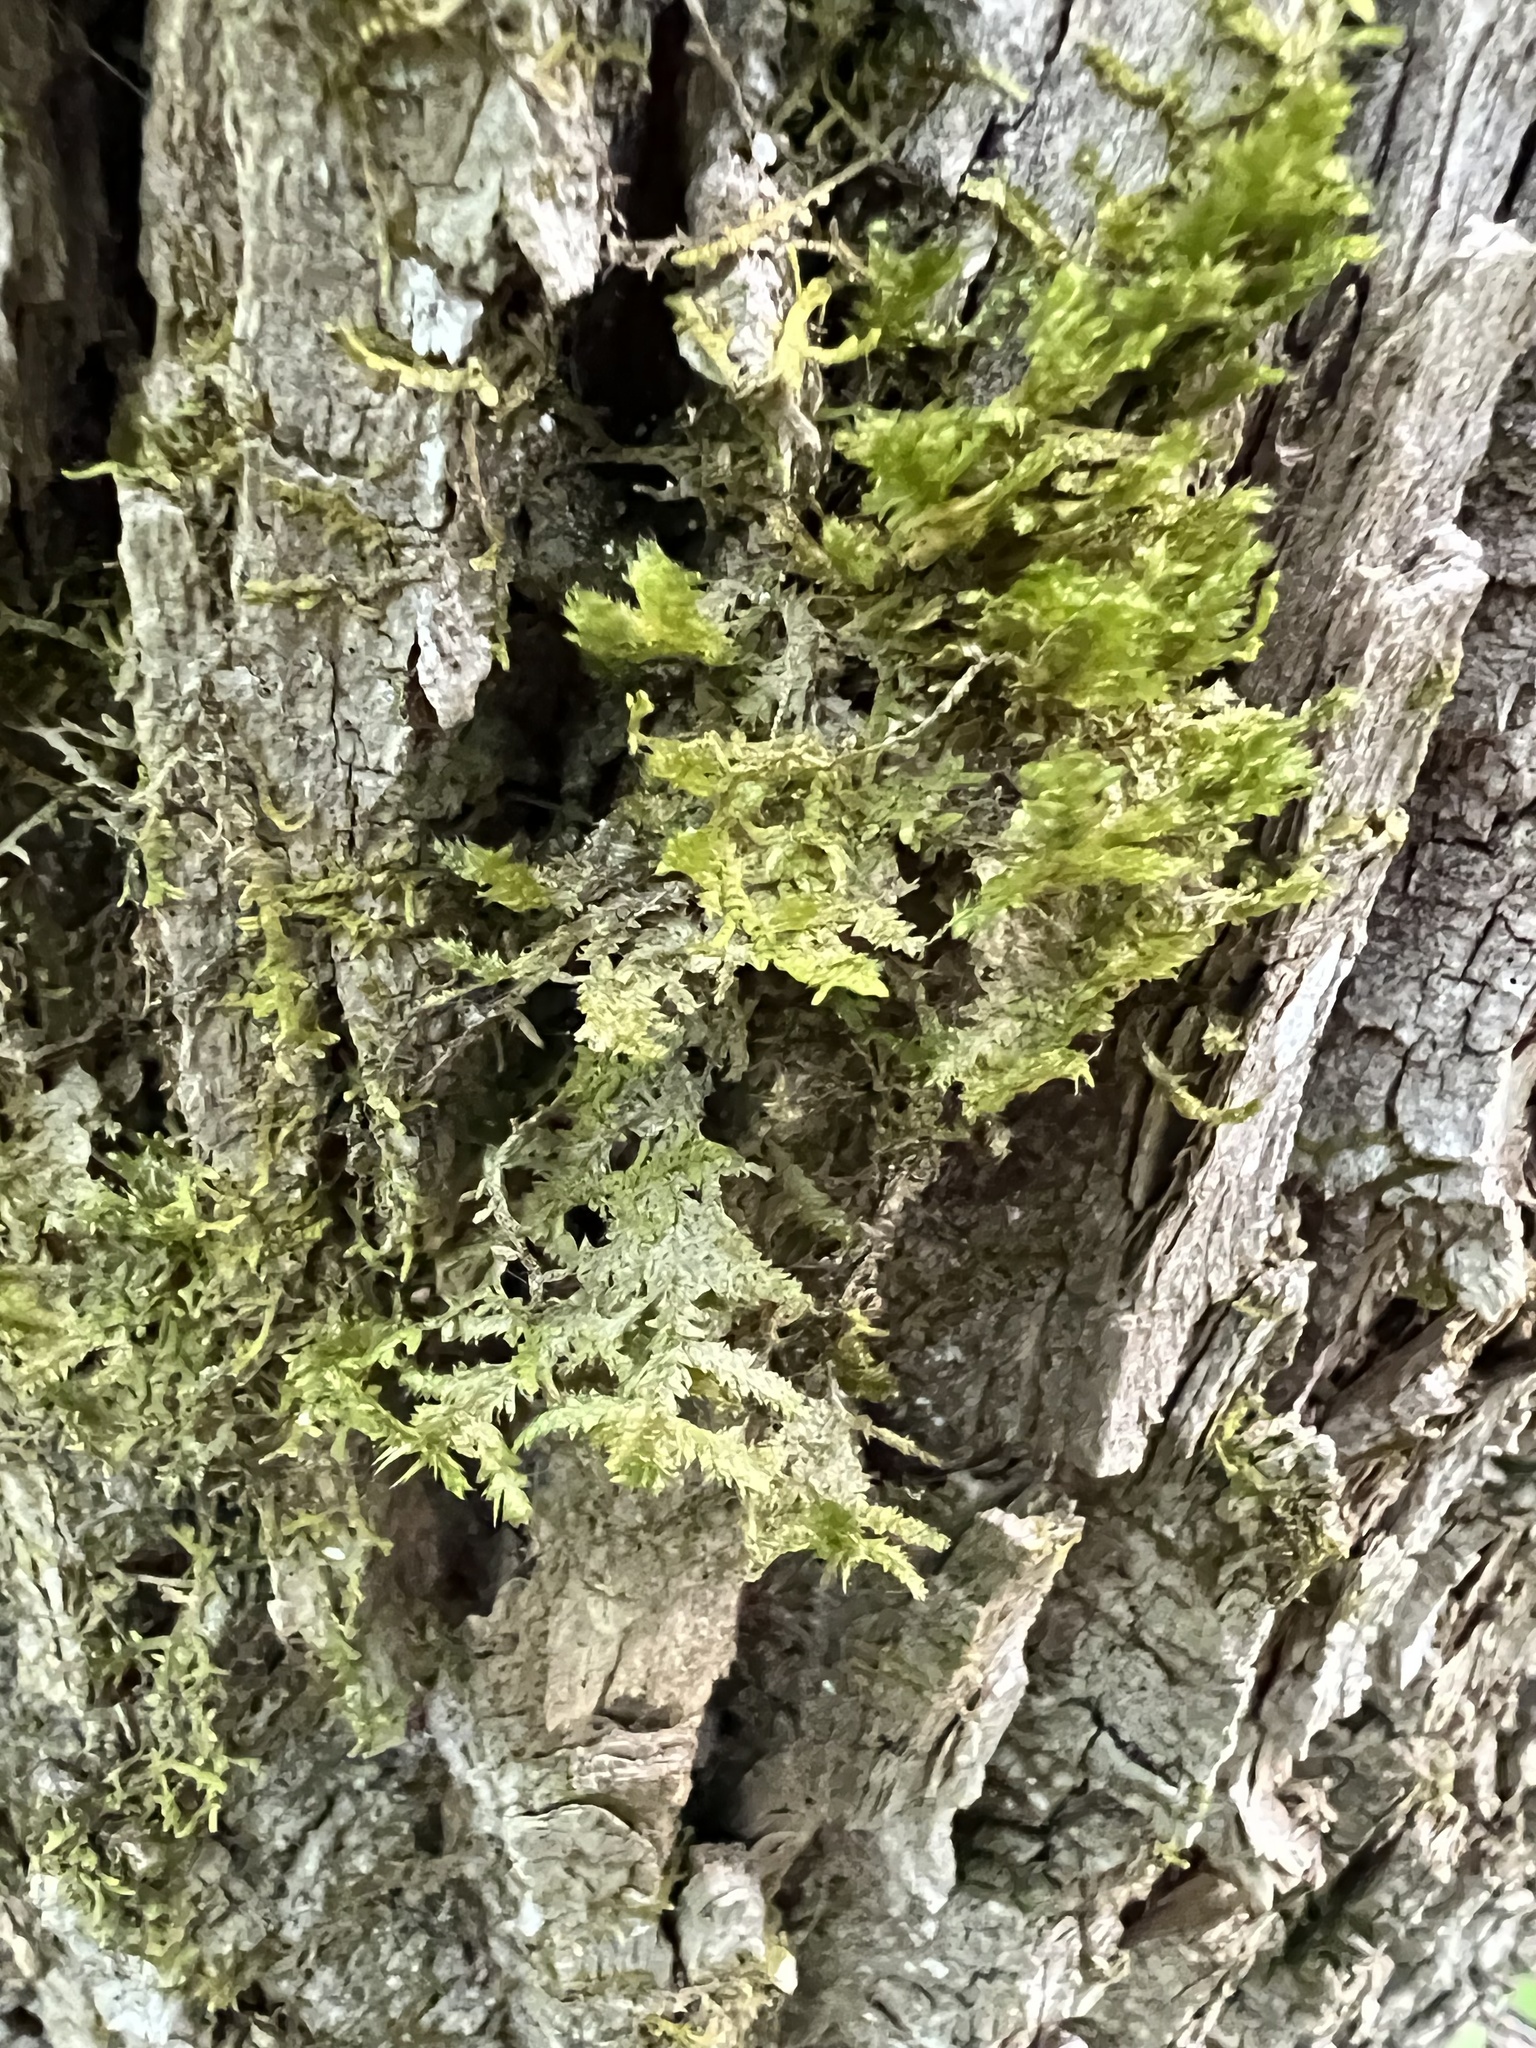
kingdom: Plantae
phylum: Bryophyta
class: Bryopsida
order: Hypnales
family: Neckeraceae
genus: Neckera
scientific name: Neckera pennata
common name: Feathery neckera
